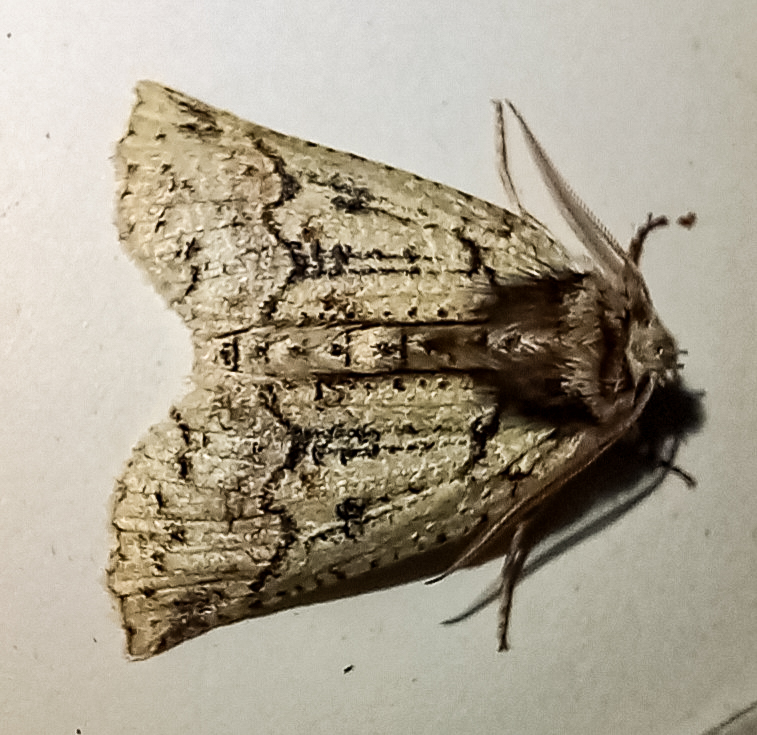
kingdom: Animalia
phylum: Arthropoda
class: Insecta
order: Lepidoptera
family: Geometridae
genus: Declana
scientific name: Declana floccosa
